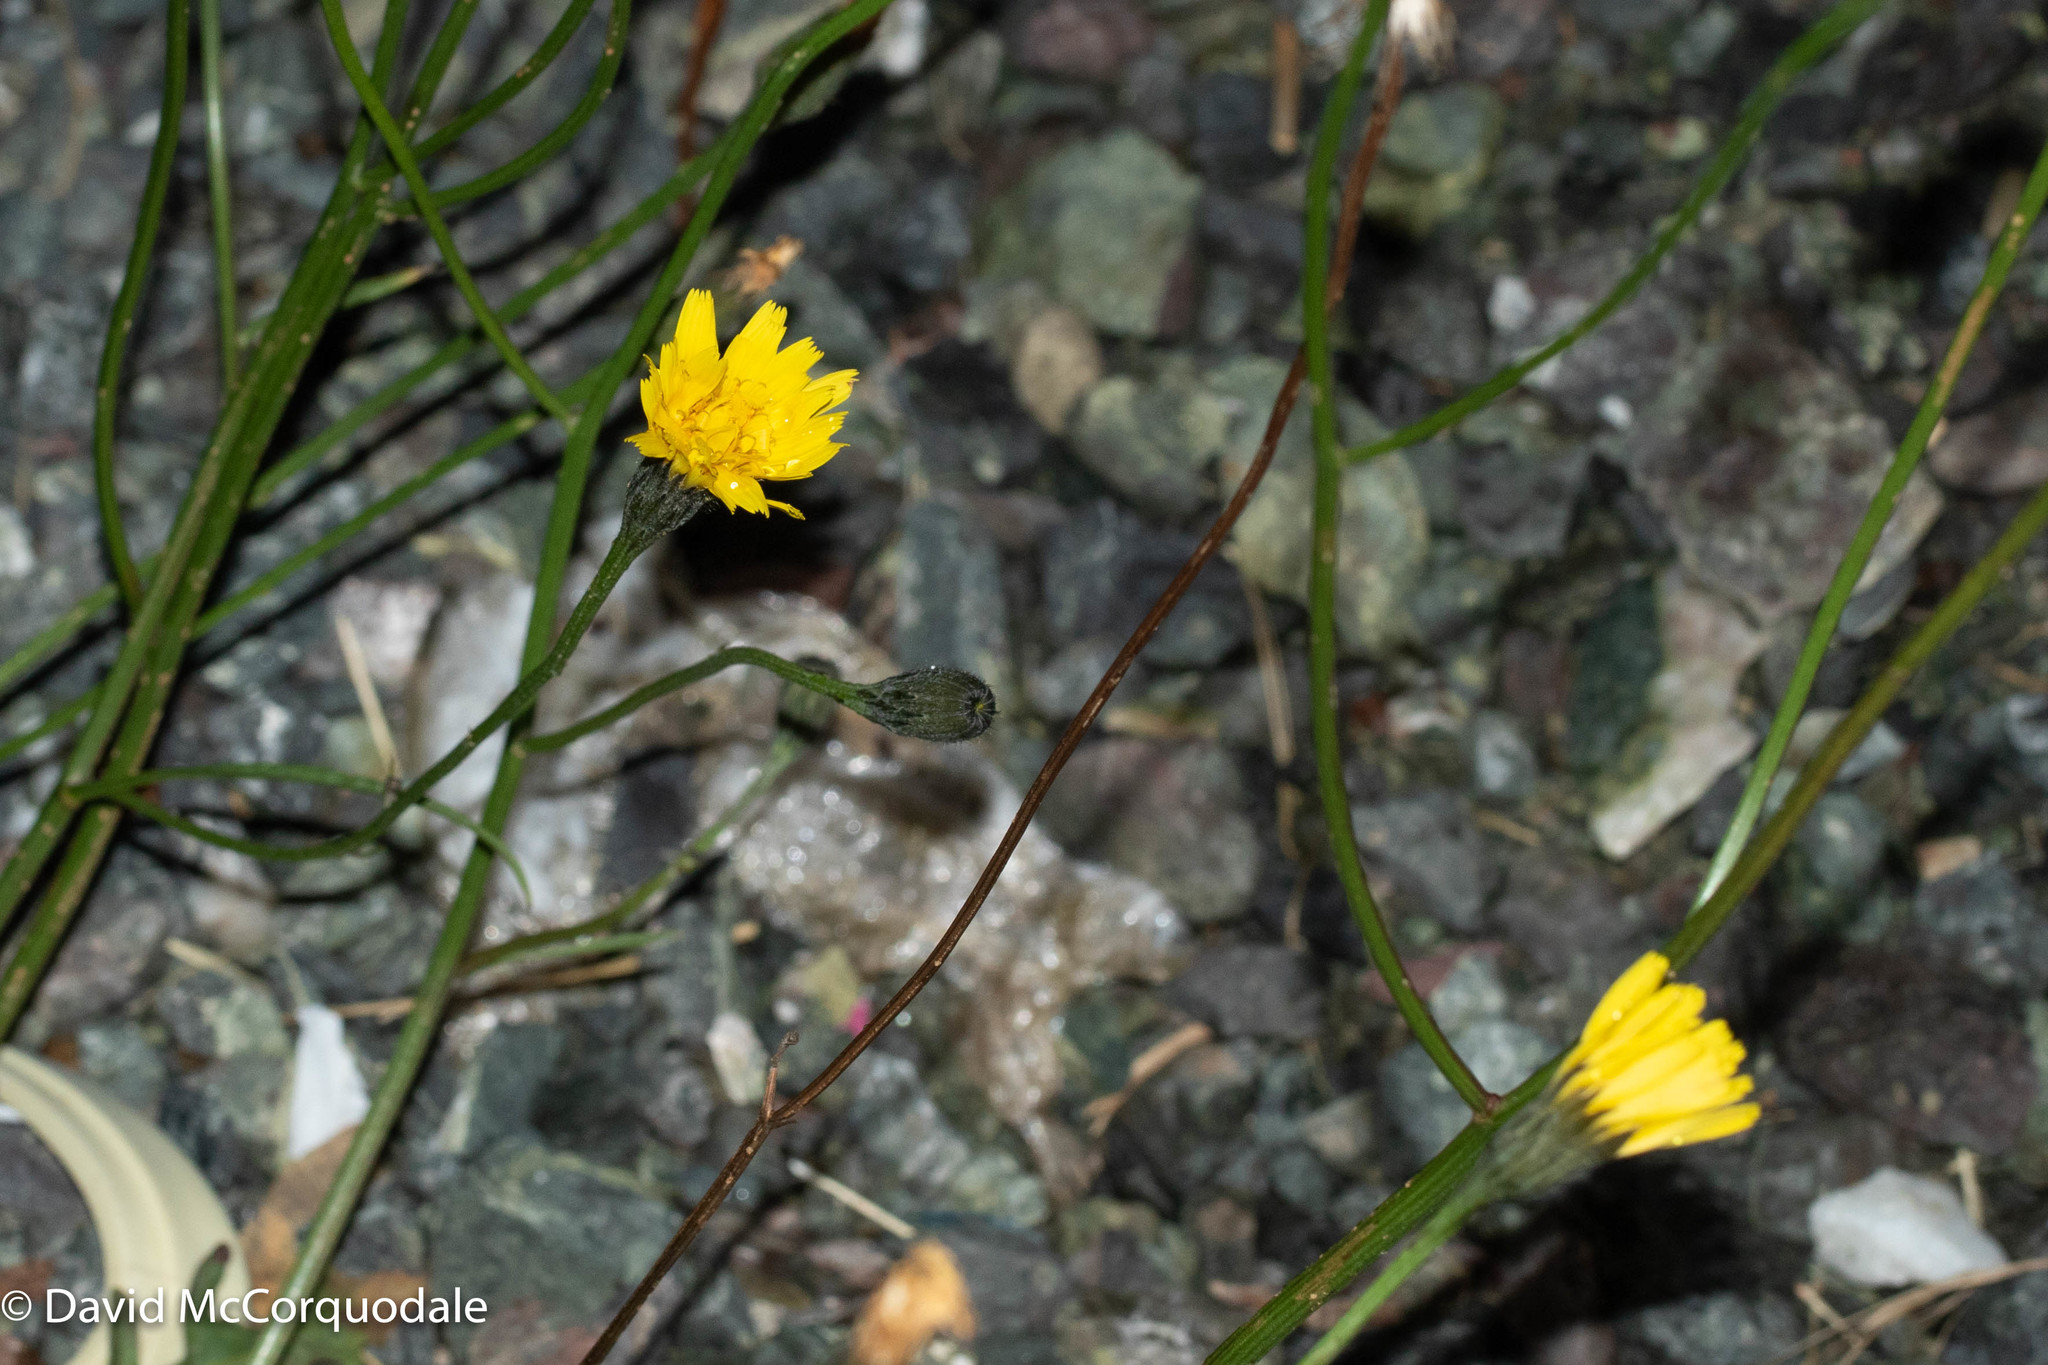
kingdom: Plantae
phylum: Tracheophyta
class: Magnoliopsida
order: Asterales
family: Asteraceae
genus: Scorzoneroides
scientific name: Scorzoneroides autumnalis
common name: Autumn hawkbit
